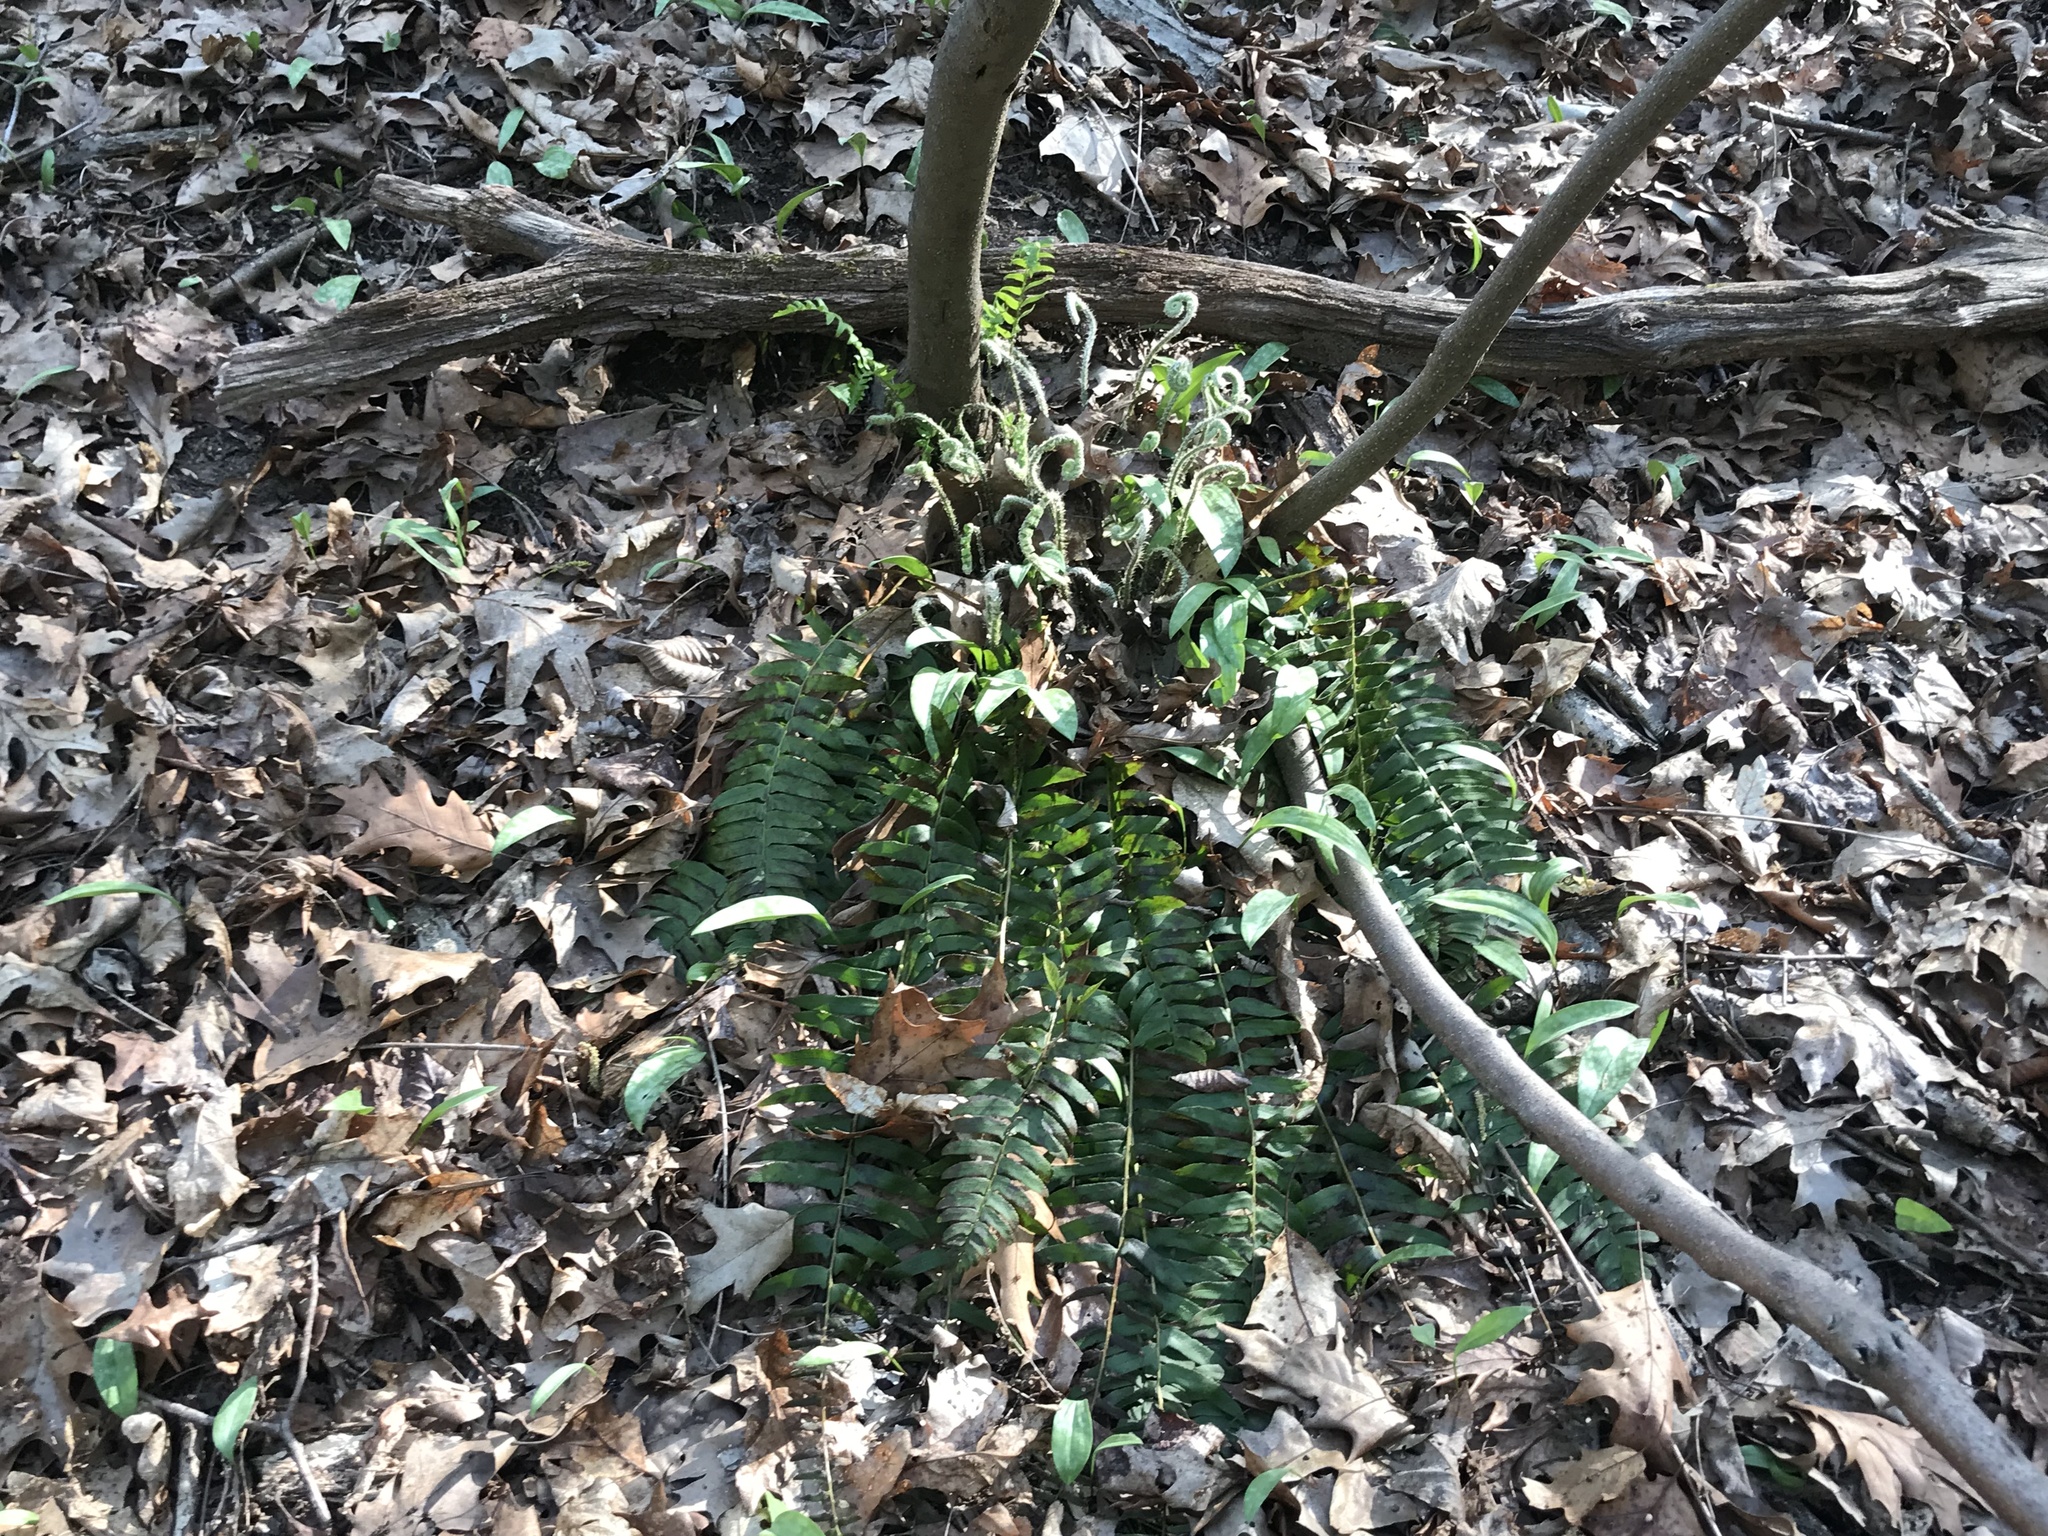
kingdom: Plantae
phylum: Tracheophyta
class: Polypodiopsida
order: Polypodiales
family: Dryopteridaceae
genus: Polystichum
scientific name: Polystichum acrostichoides
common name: Christmas fern
